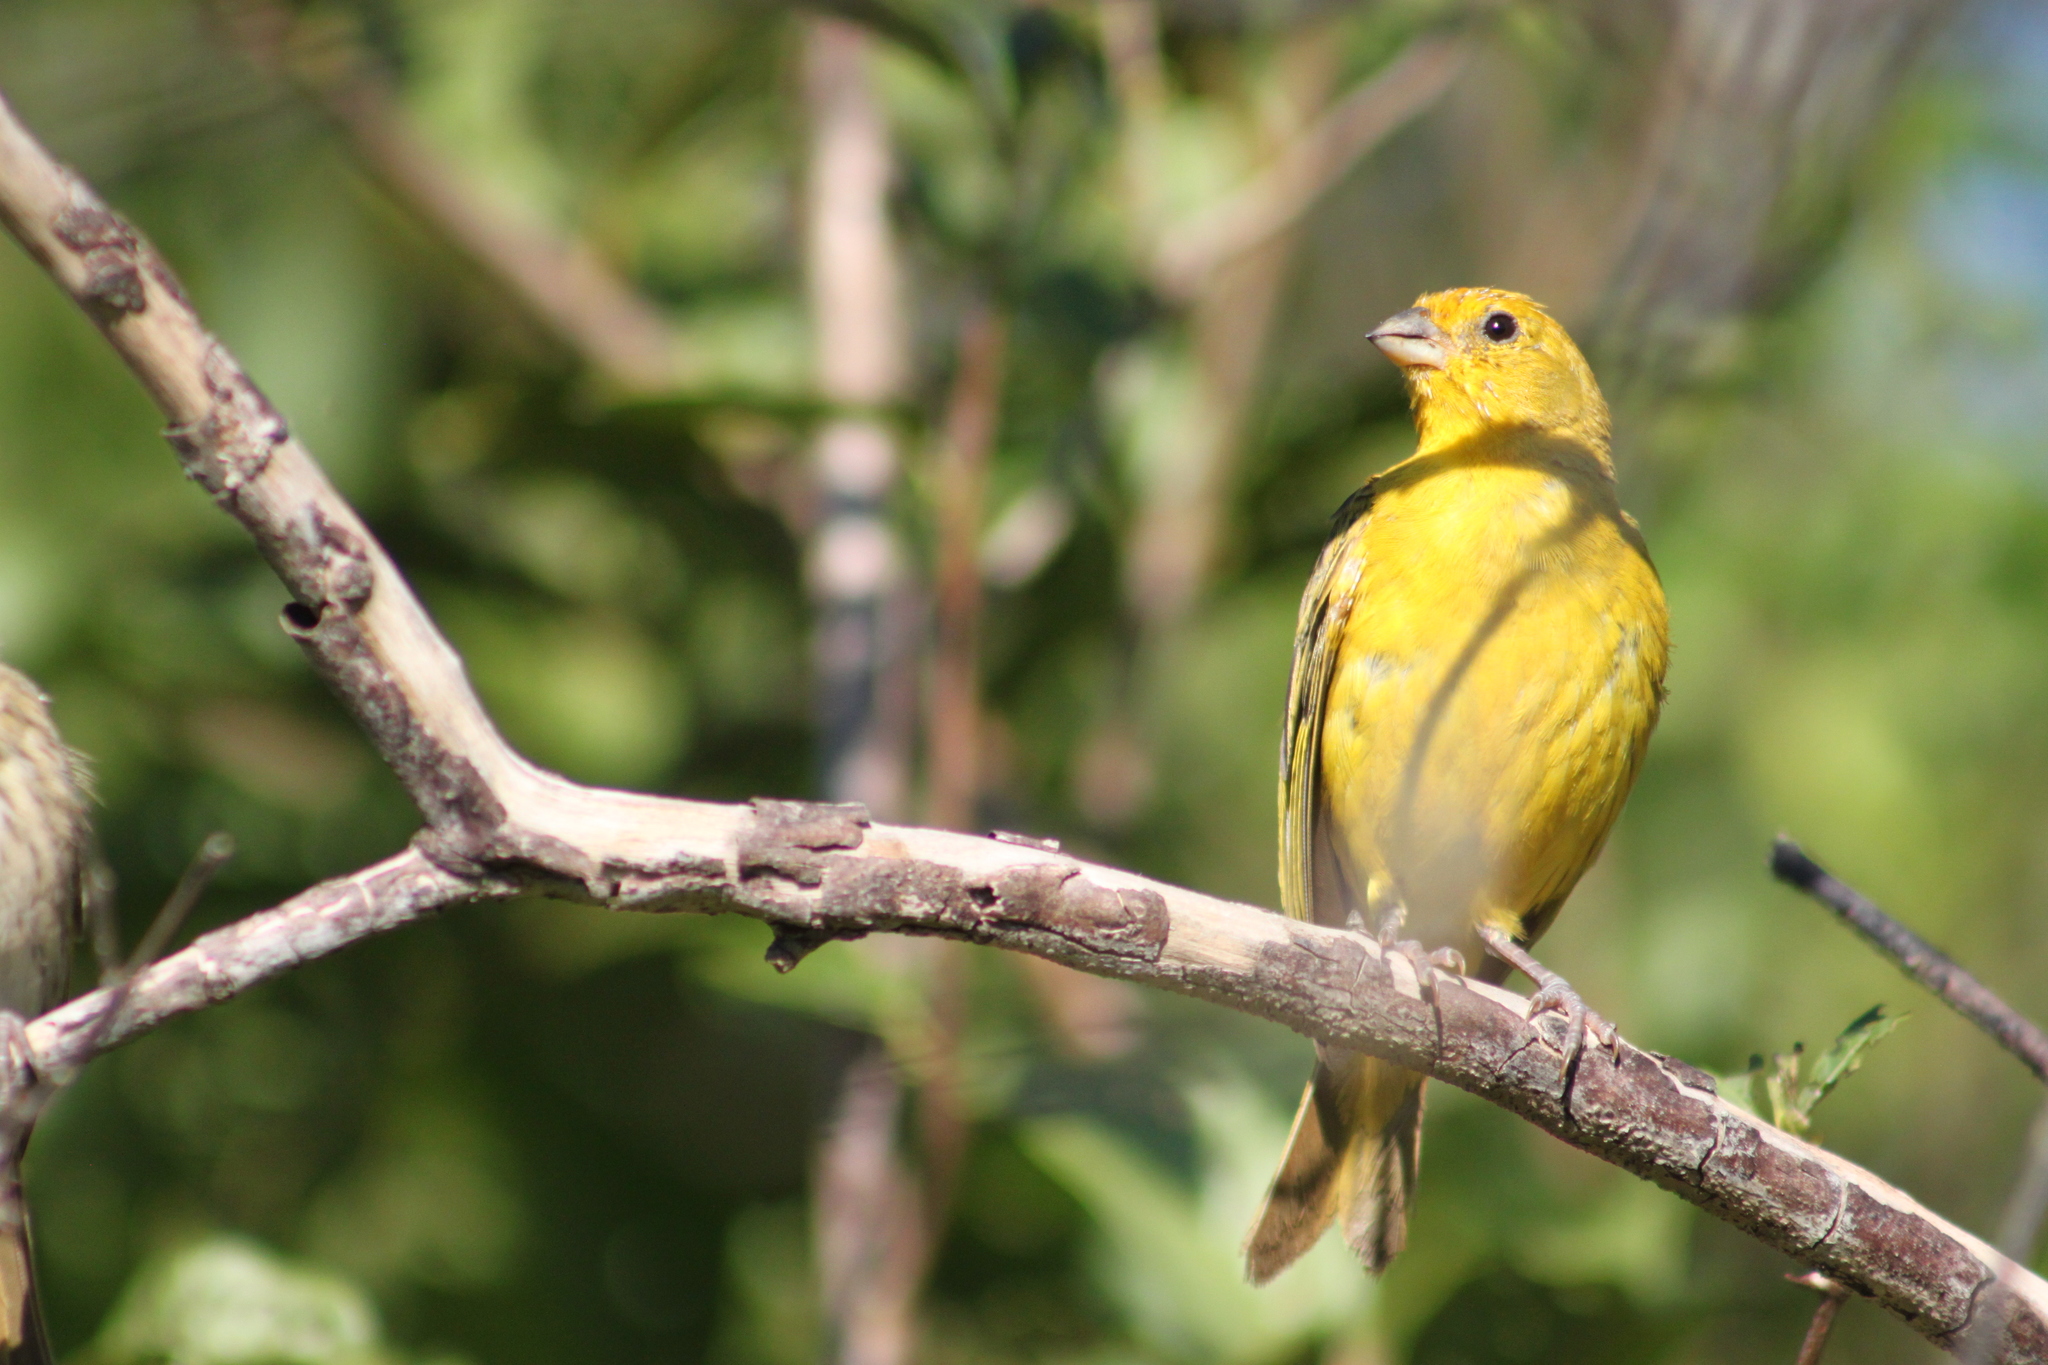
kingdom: Animalia
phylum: Chordata
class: Aves
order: Passeriformes
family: Thraupidae
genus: Sicalis
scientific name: Sicalis flaveola
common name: Saffron finch
